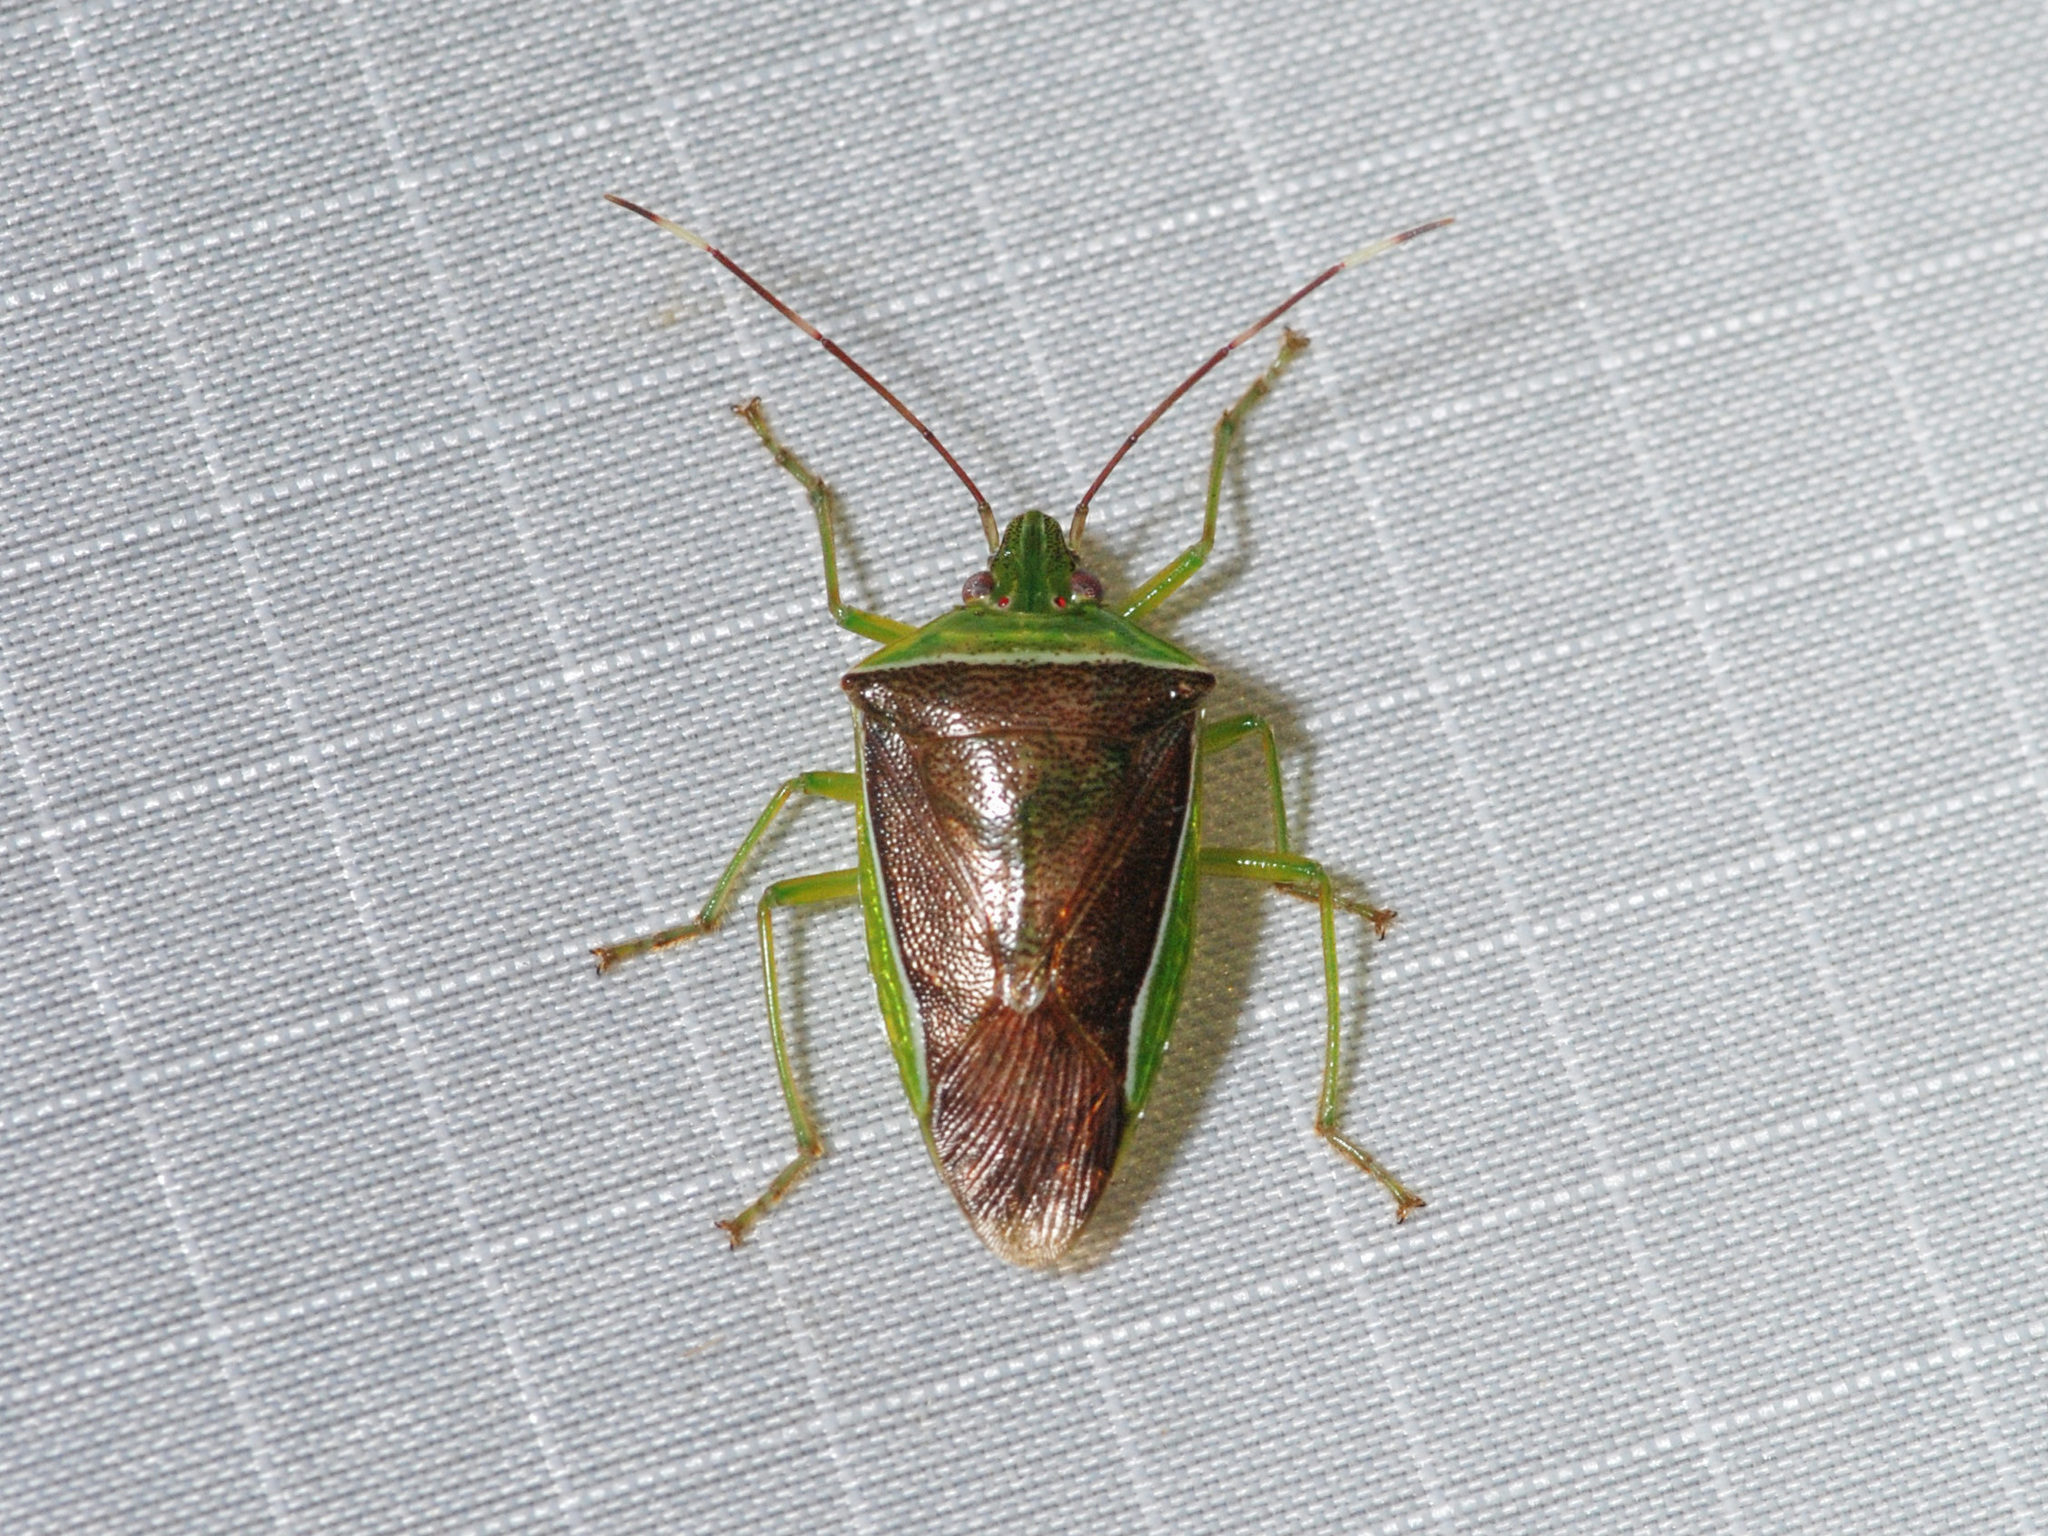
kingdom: Animalia
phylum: Arthropoda
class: Insecta
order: Hemiptera
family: Pentatomidae
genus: Neojurtina
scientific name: Neojurtina typica
